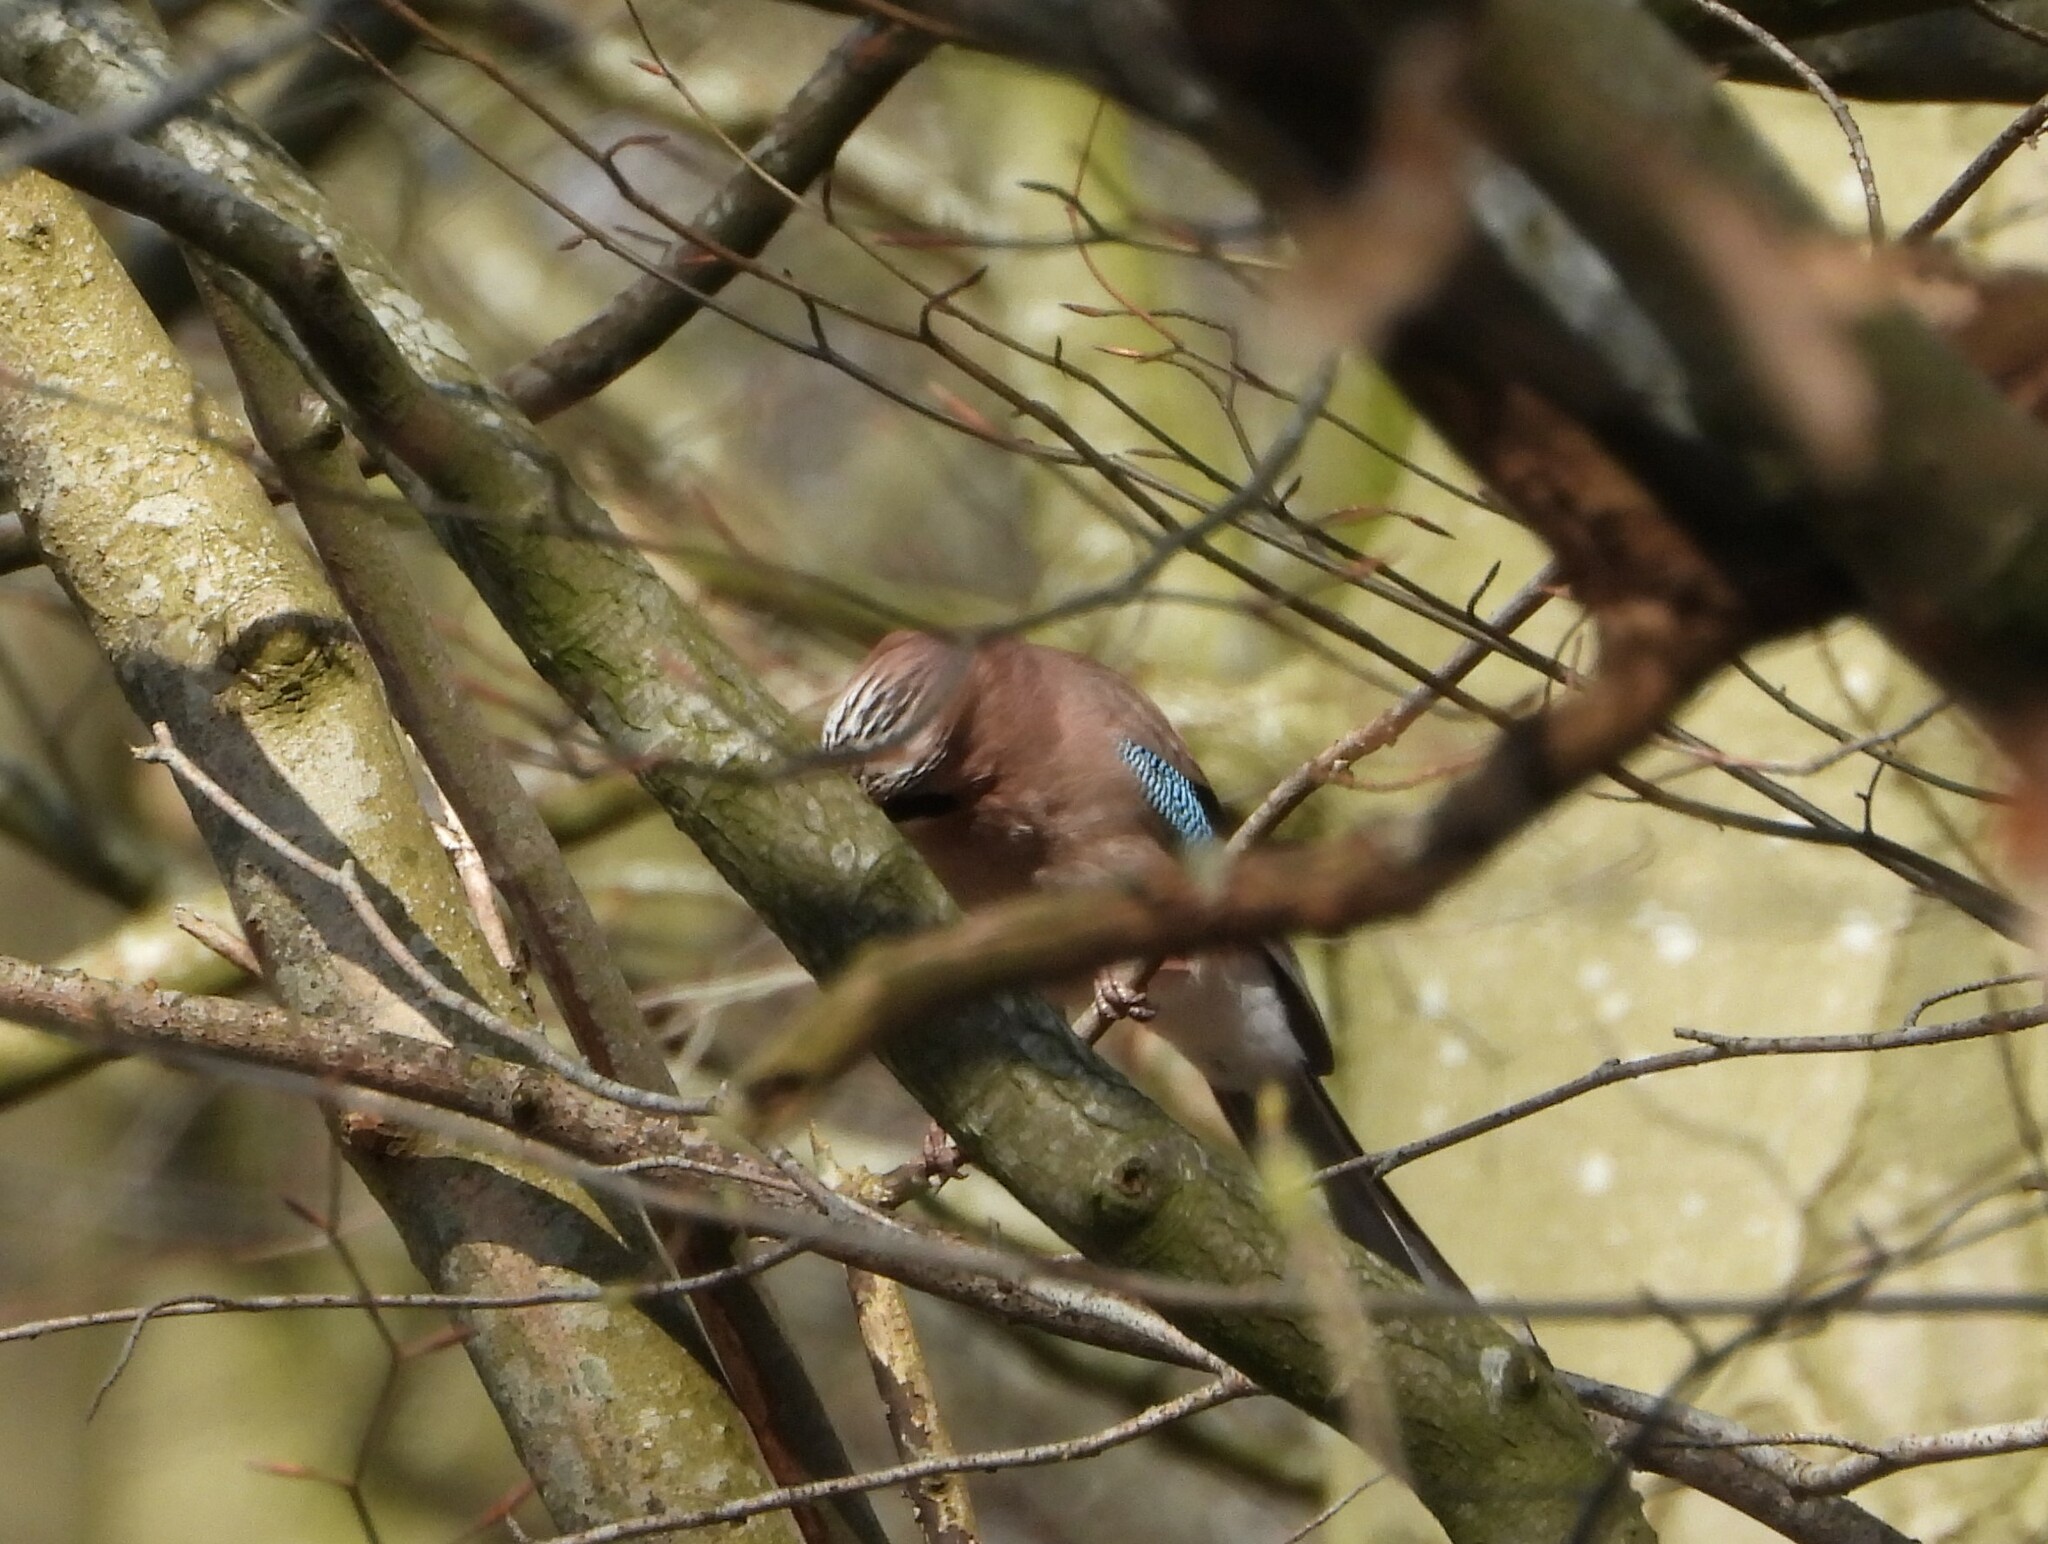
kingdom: Animalia
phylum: Chordata
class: Aves
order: Passeriformes
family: Corvidae
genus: Garrulus
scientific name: Garrulus glandarius
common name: Eurasian jay
